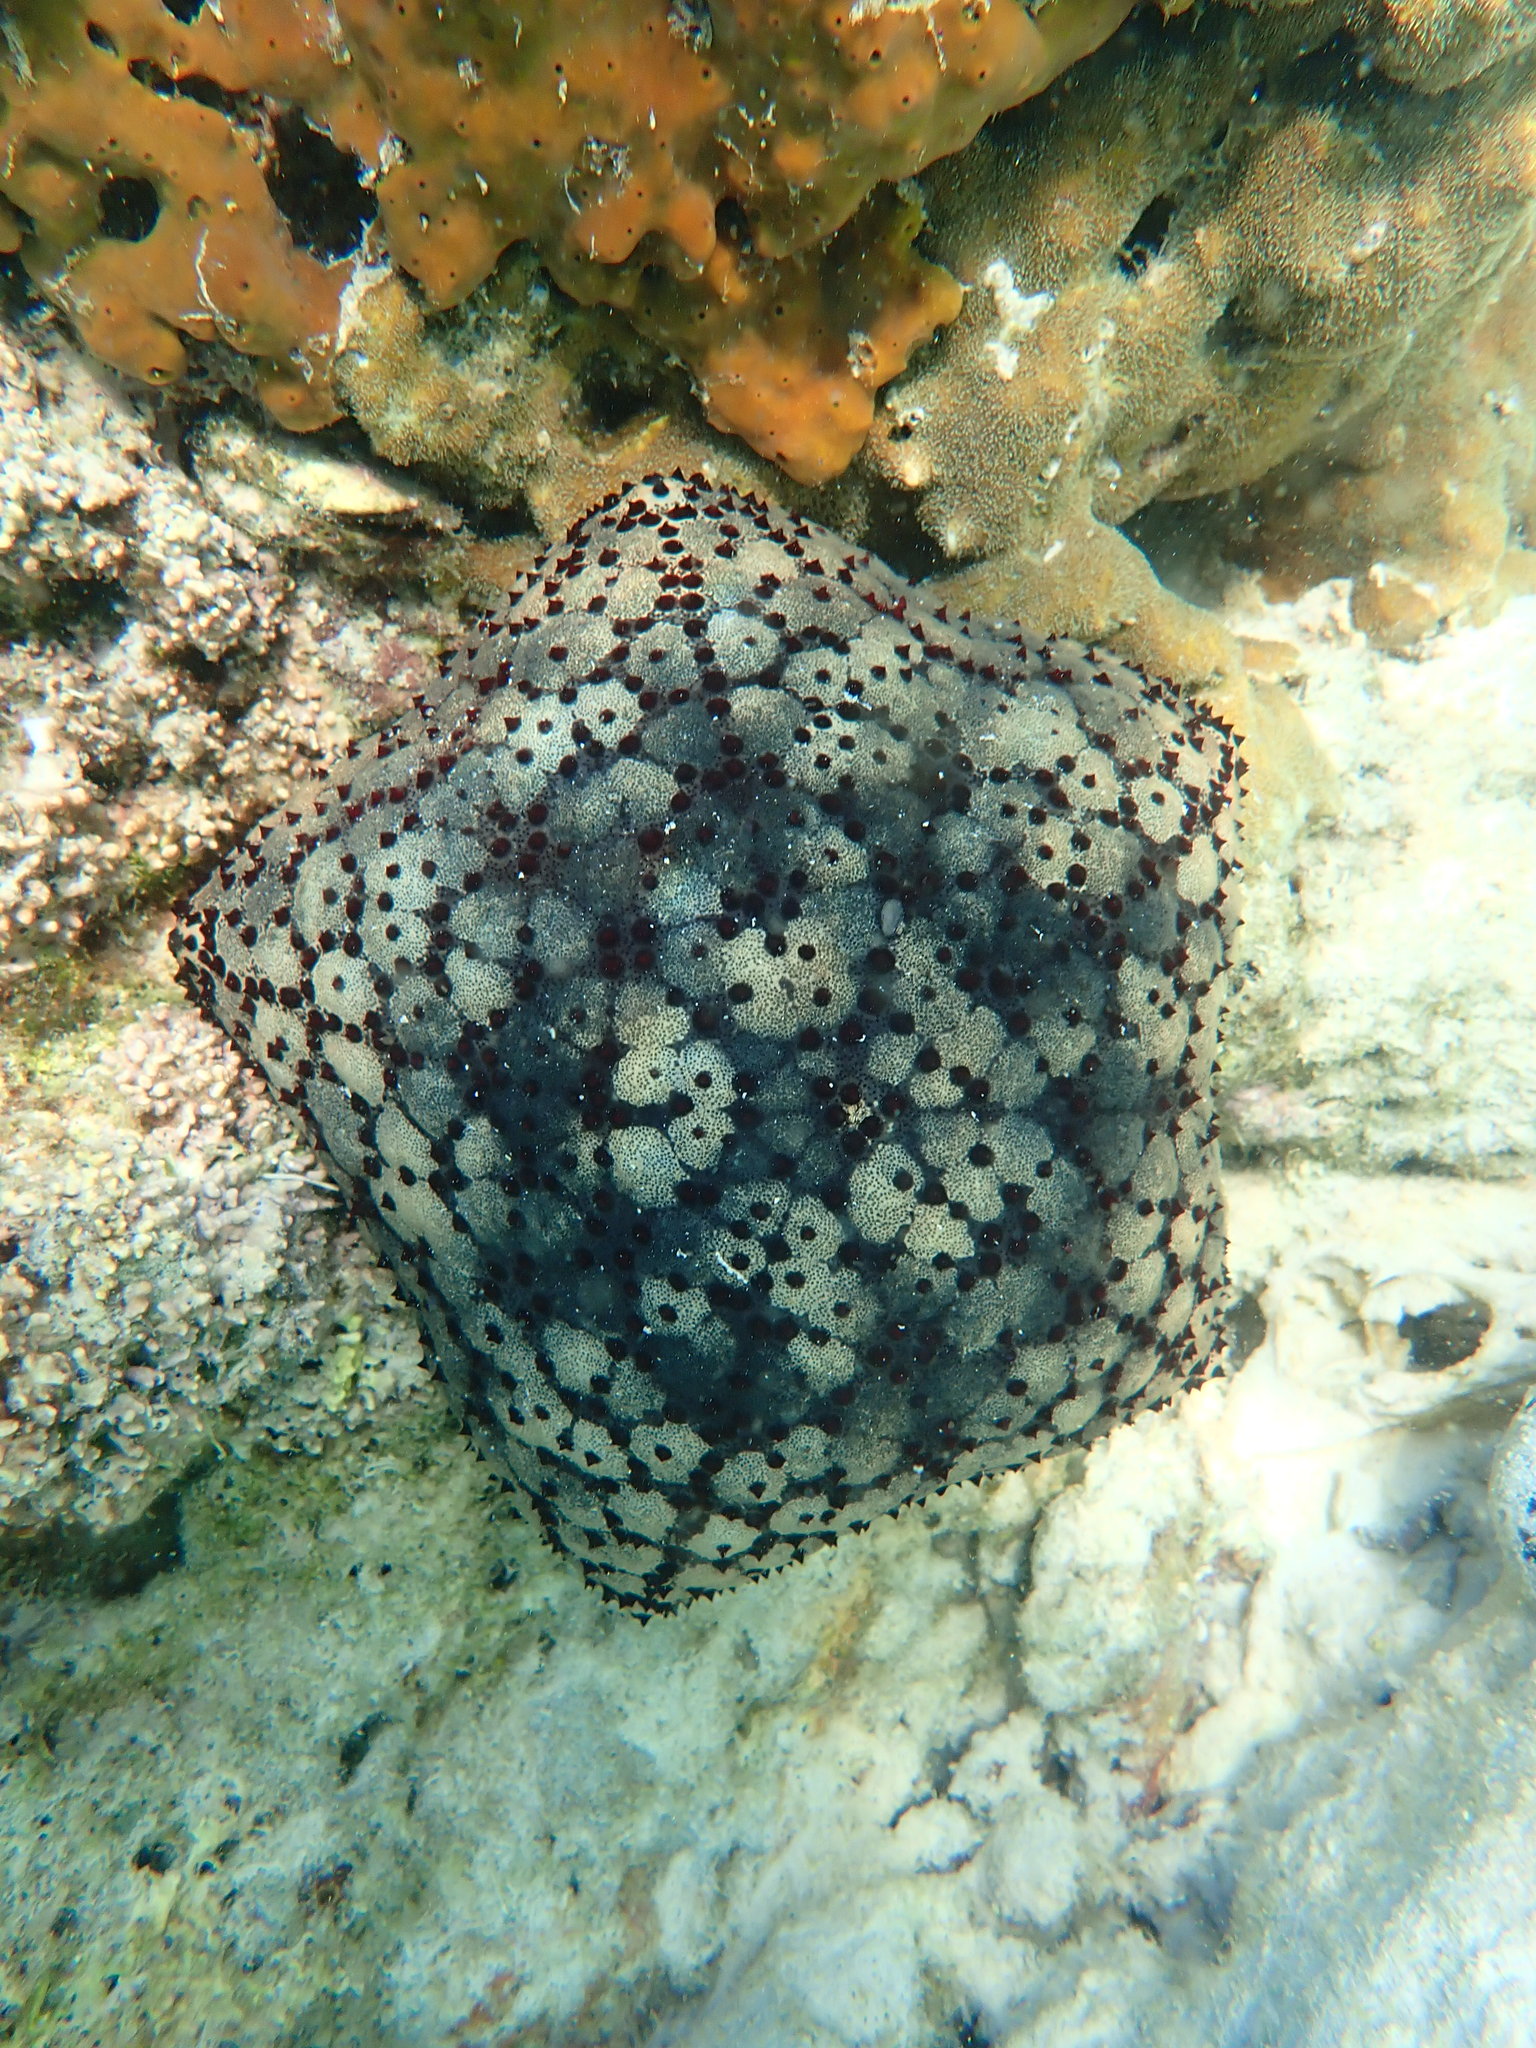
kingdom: Animalia
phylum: Echinodermata
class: Asteroidea
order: Valvatida
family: Oreasteridae
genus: Culcita
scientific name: Culcita schmideliana
